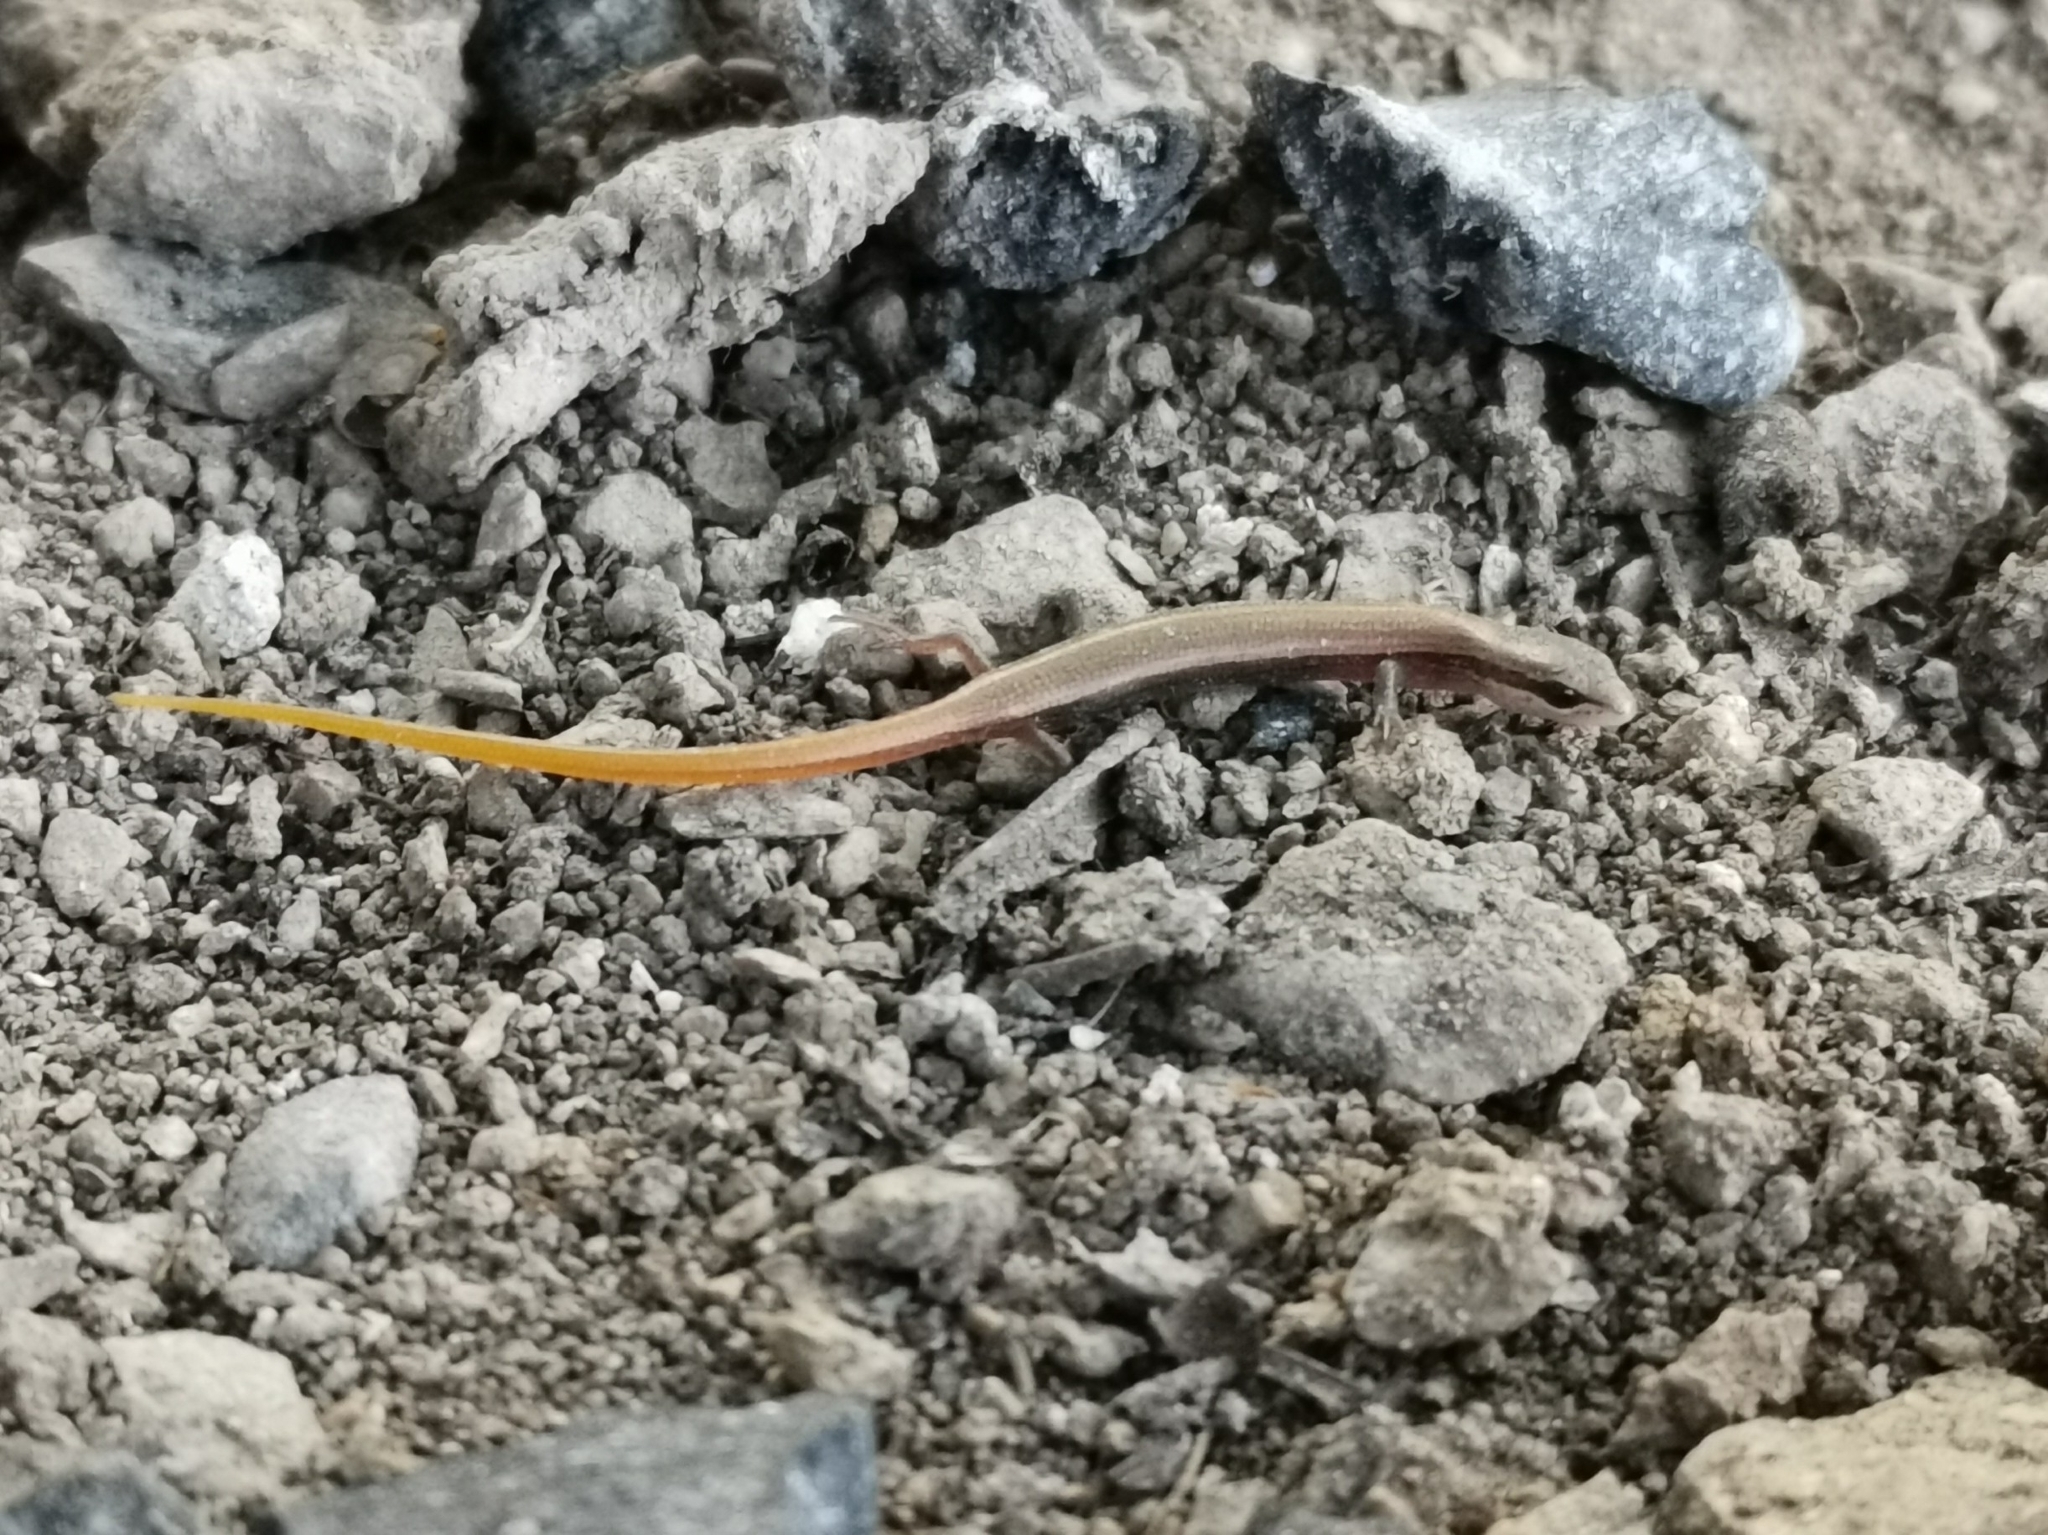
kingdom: Animalia
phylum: Chordata
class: Squamata
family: Scincidae
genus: Ablepharus
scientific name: Ablepharus kitaibelii
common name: Juniper skink
